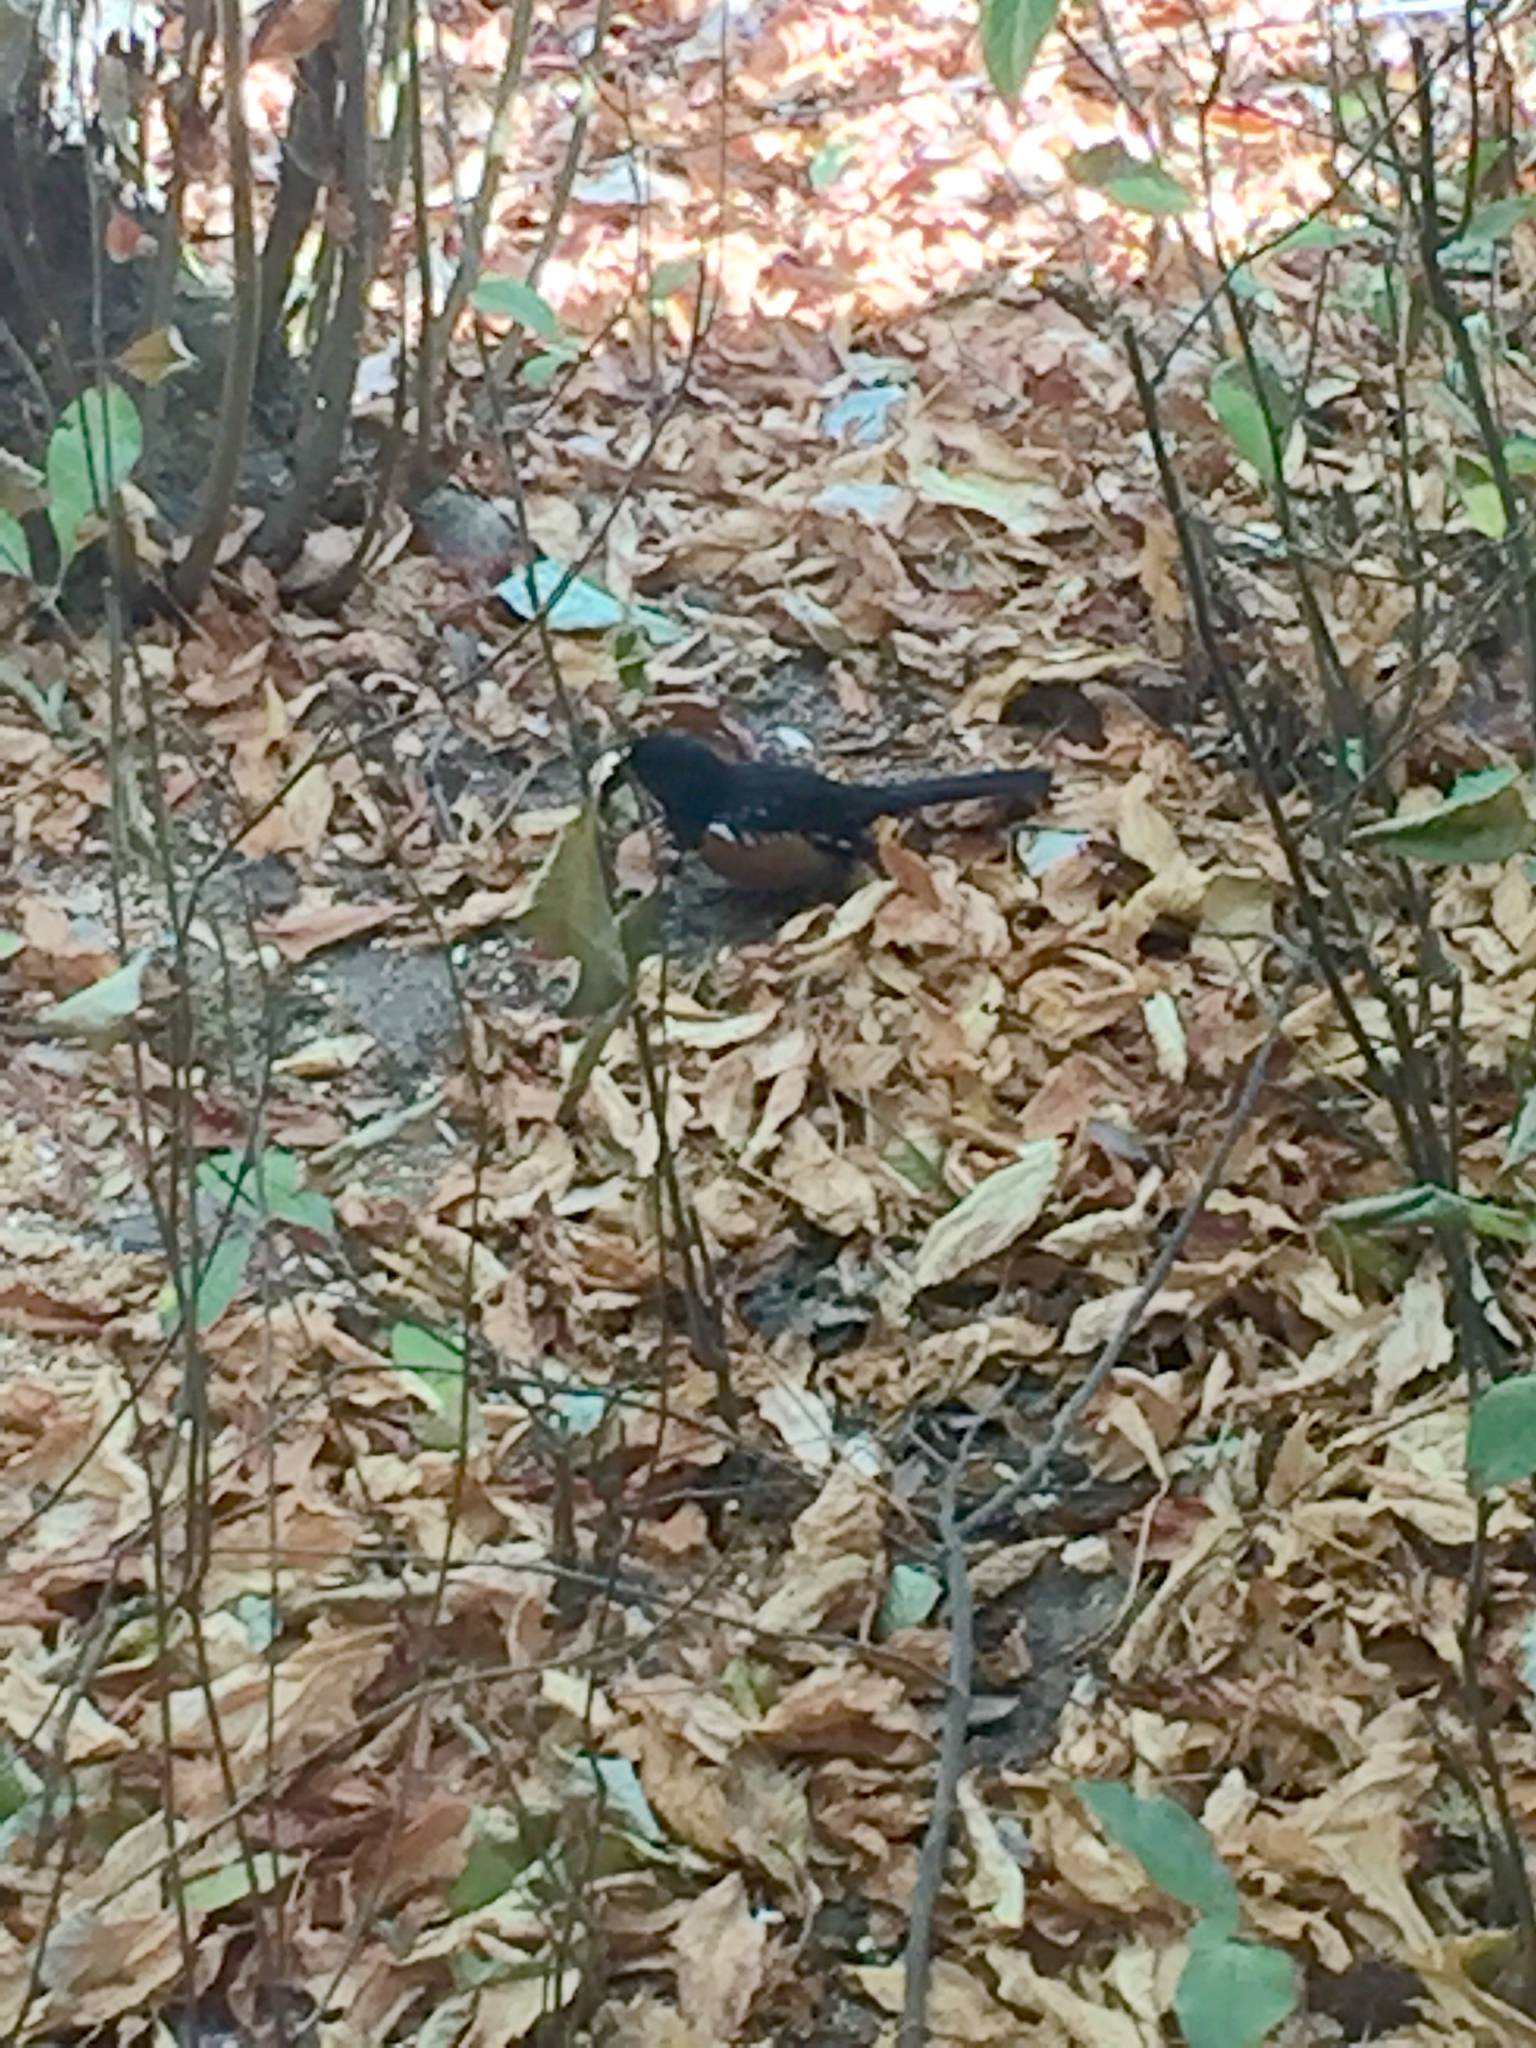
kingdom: Animalia
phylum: Chordata
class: Aves
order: Passeriformes
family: Passerellidae
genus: Pipilo
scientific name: Pipilo maculatus
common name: Spotted towhee
